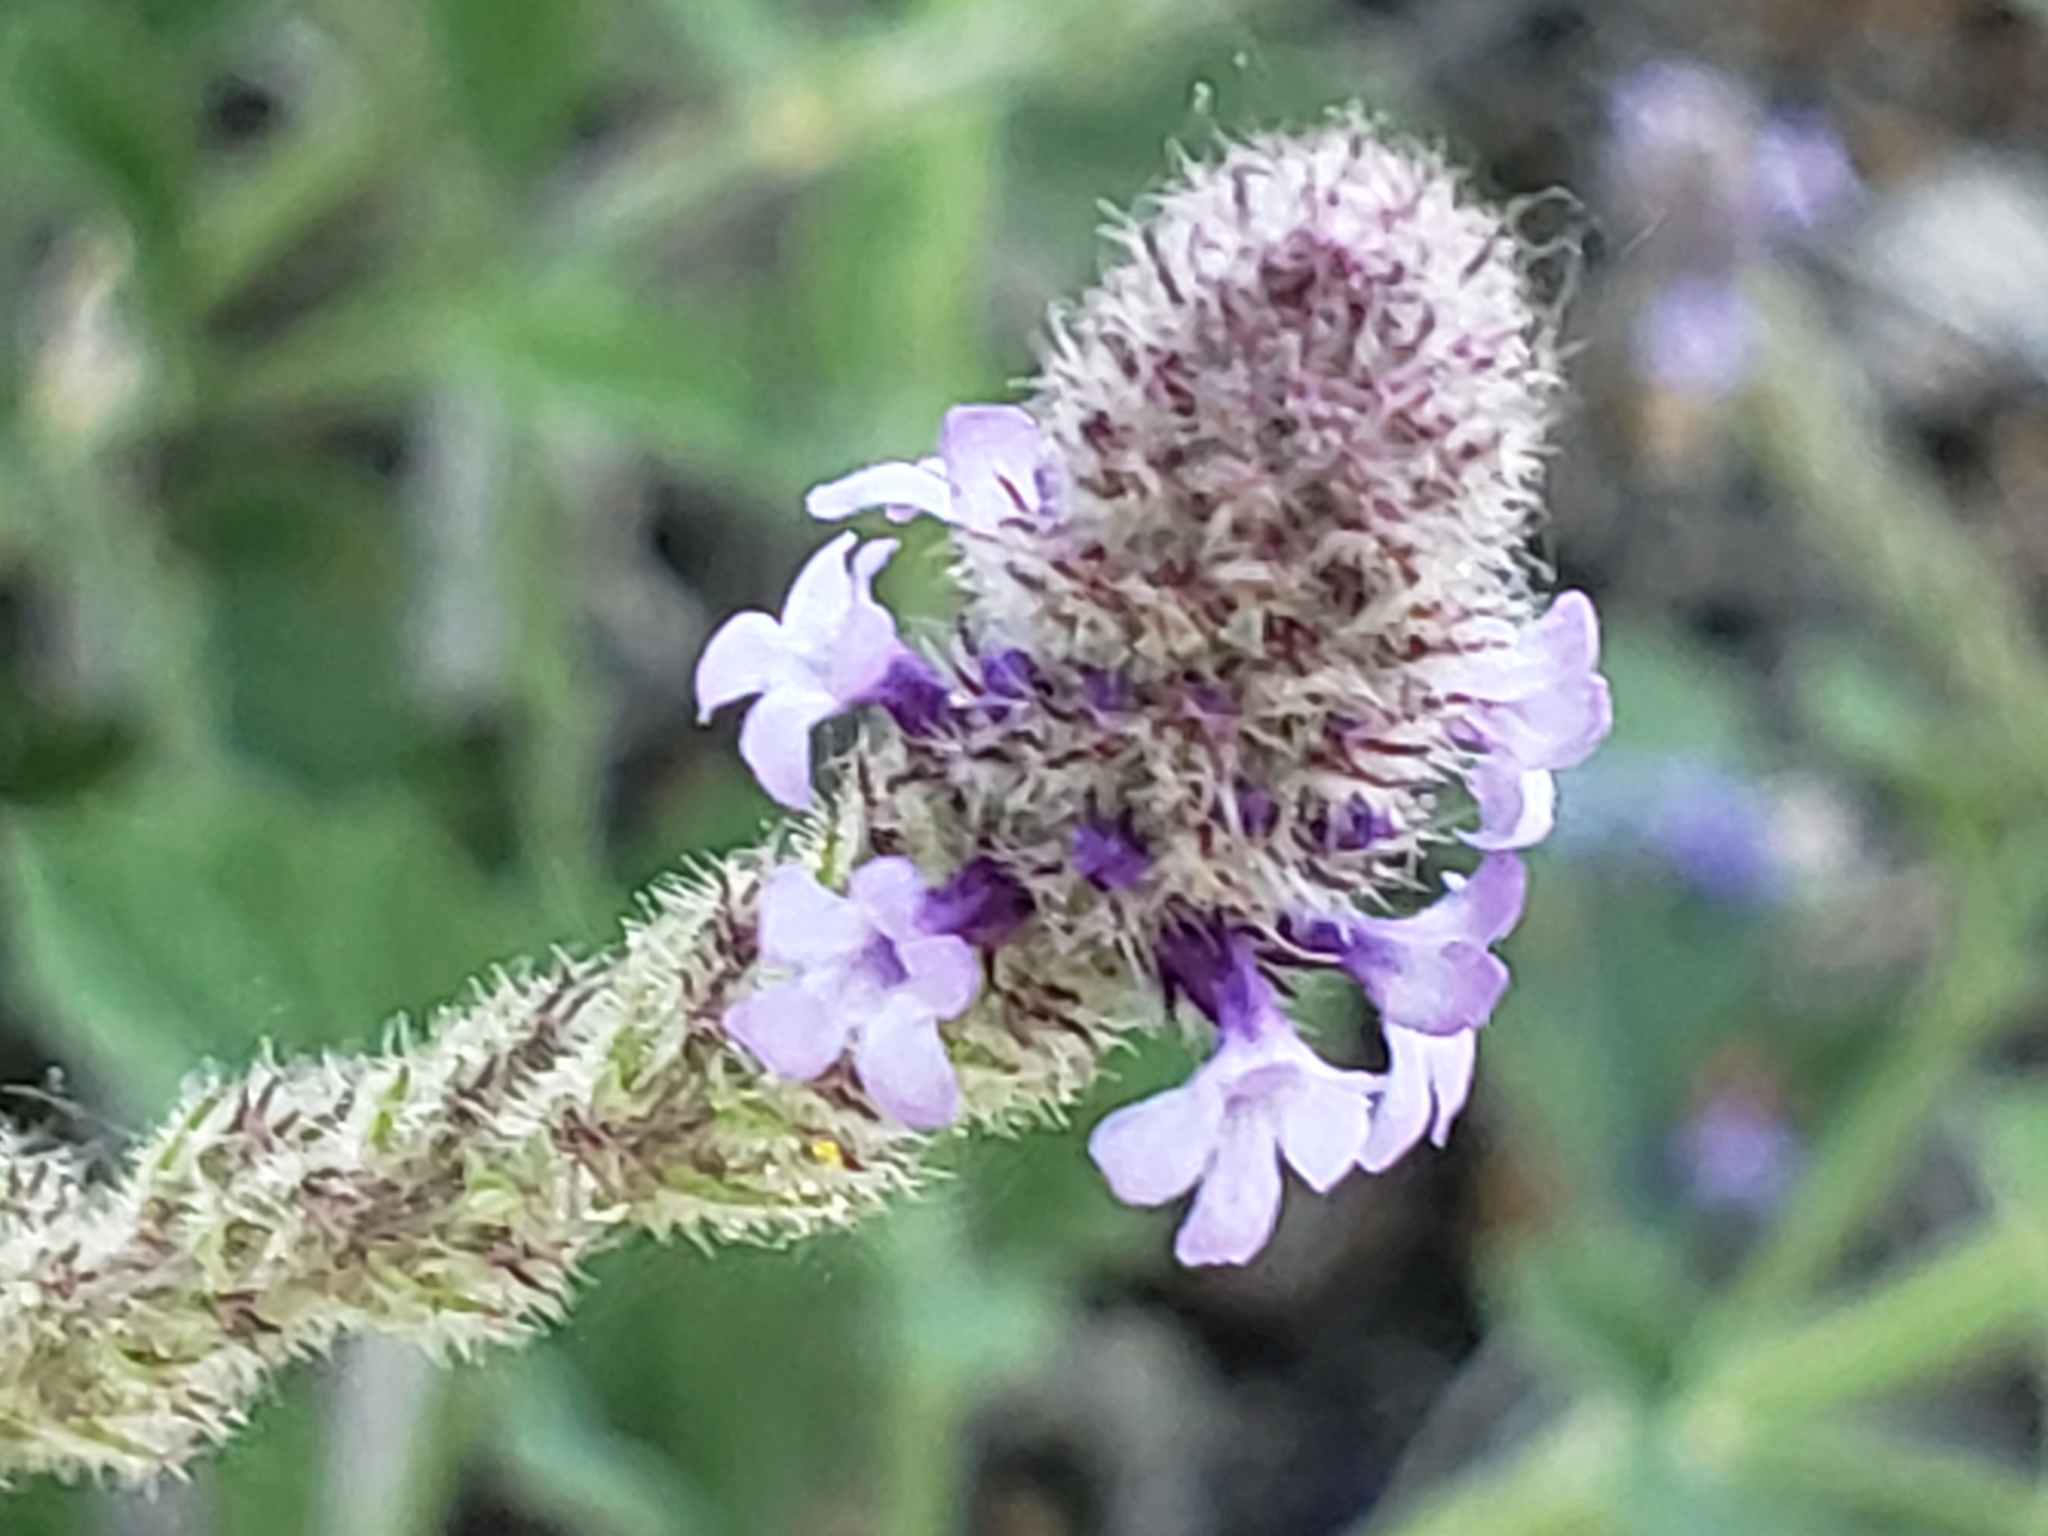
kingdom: Plantae
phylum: Tracheophyta
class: Magnoliopsida
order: Lamiales
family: Verbenaceae
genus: Verbena
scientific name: Verbena lasiostachys
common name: Vervain
